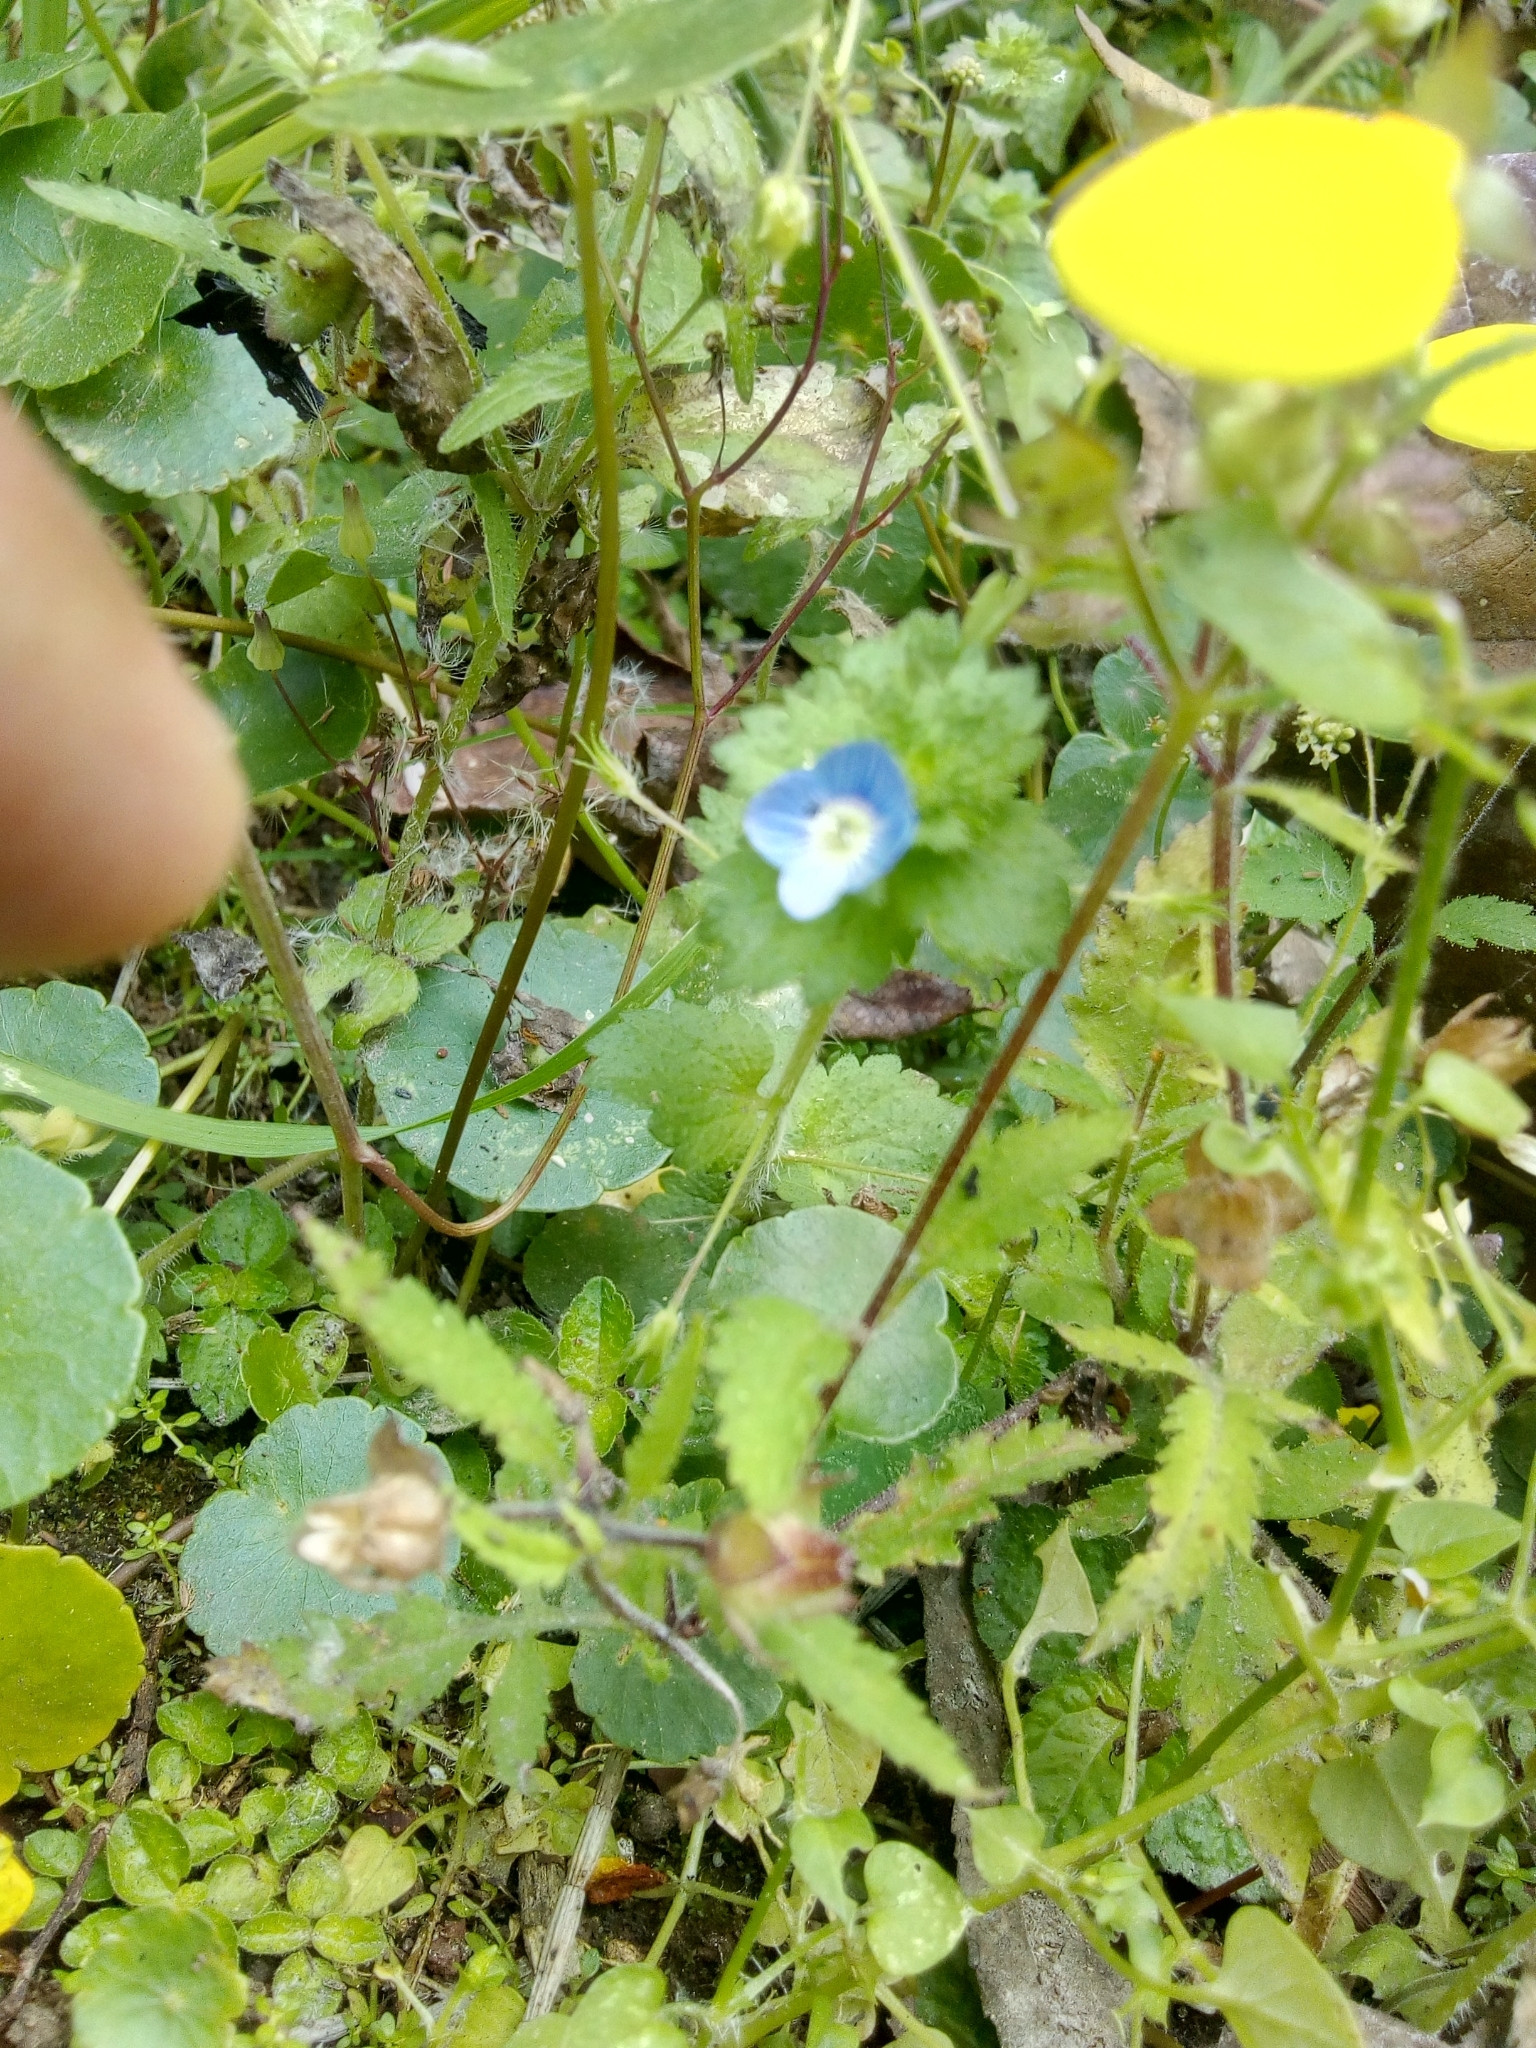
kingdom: Plantae
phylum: Tracheophyta
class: Magnoliopsida
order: Lamiales
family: Plantaginaceae
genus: Veronica
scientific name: Veronica persica
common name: Common field-speedwell
